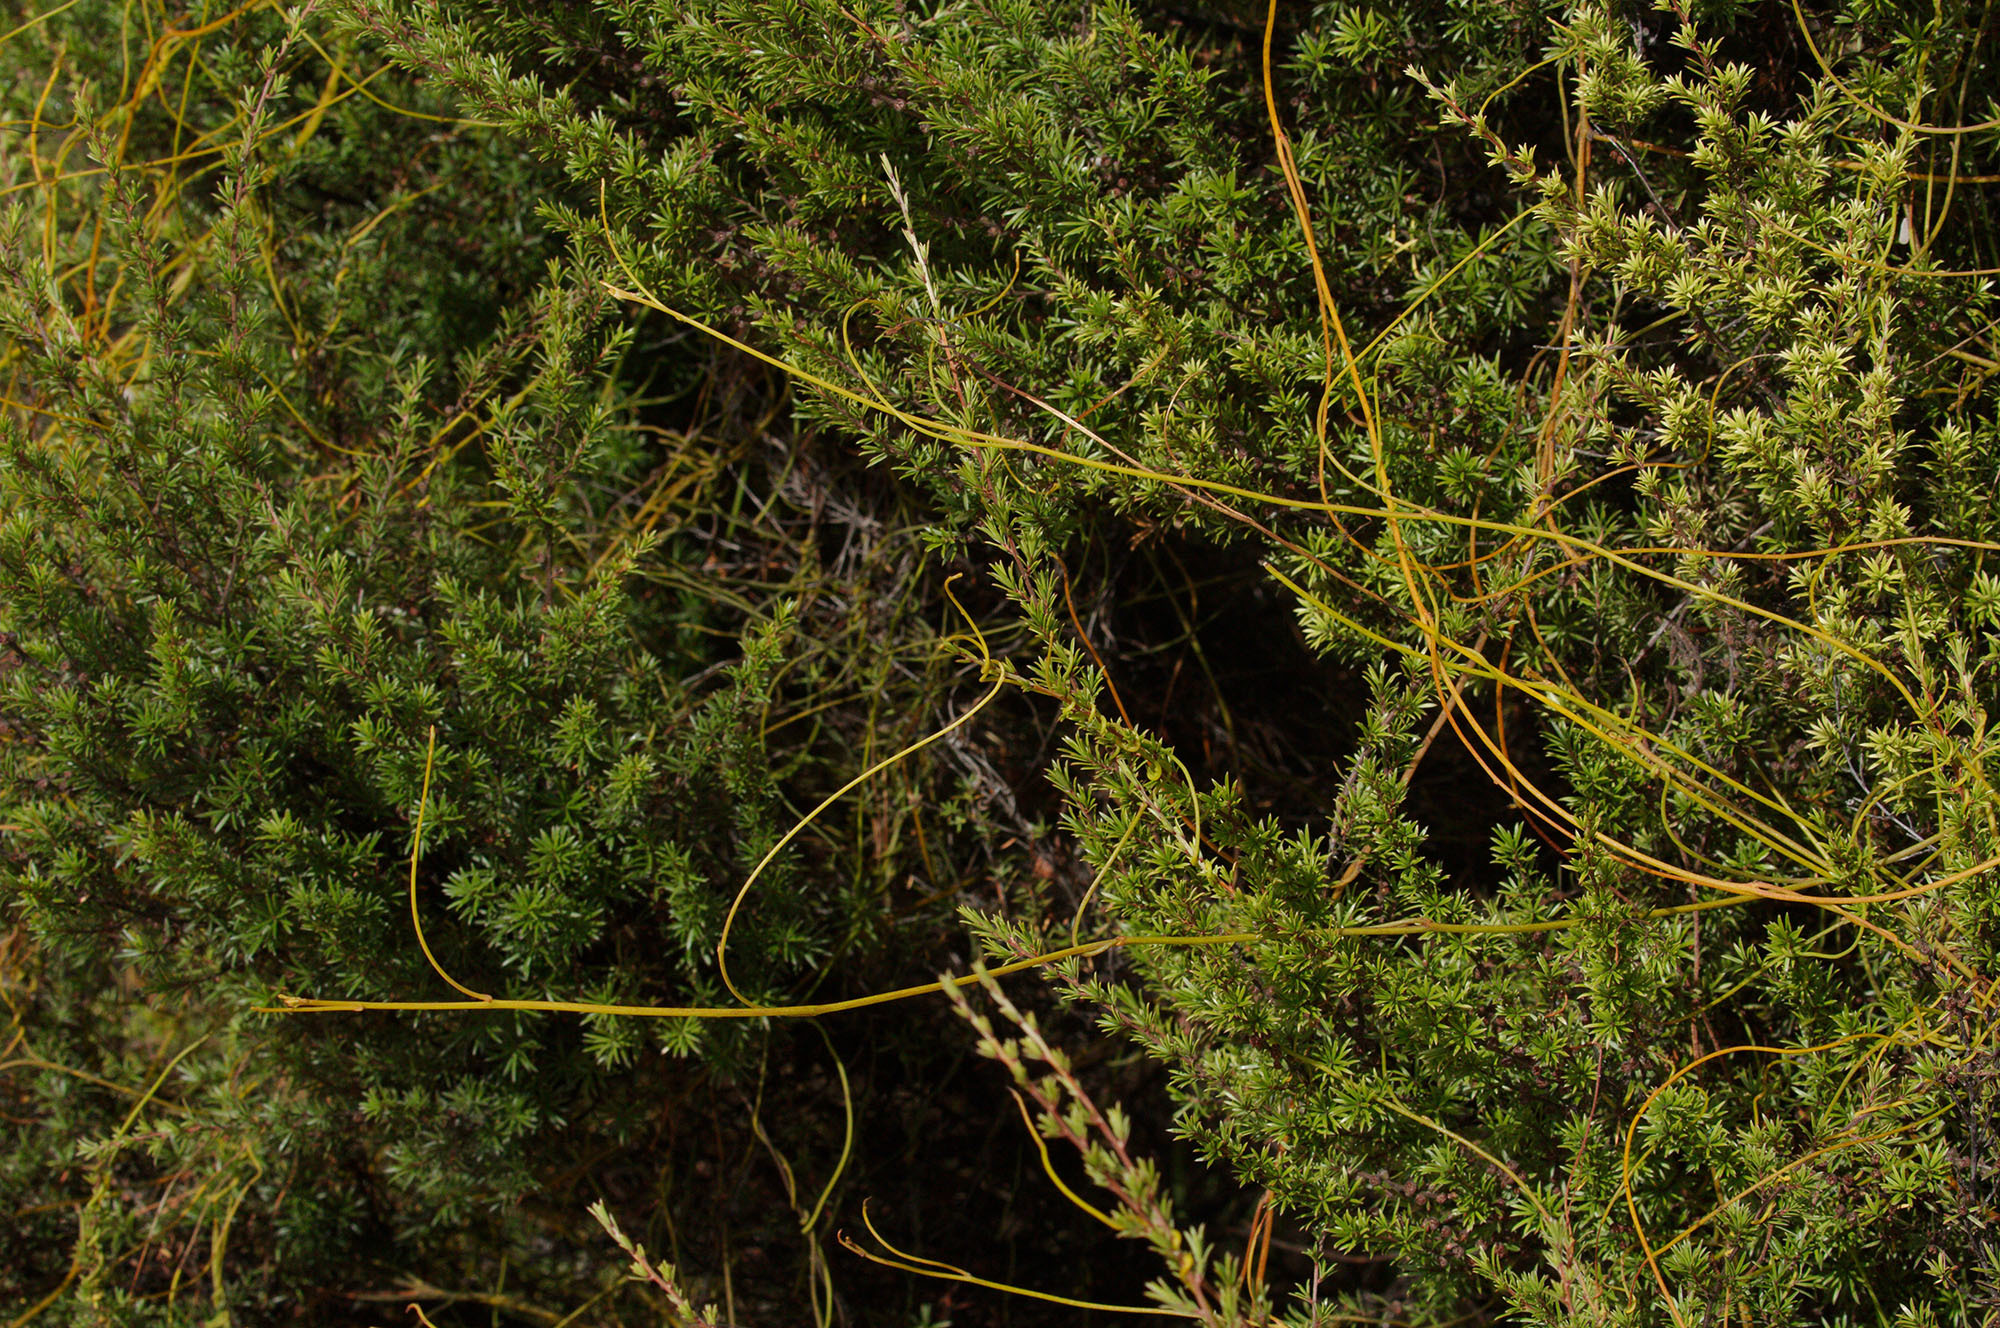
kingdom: Plantae
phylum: Tracheophyta
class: Magnoliopsida
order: Laurales
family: Lauraceae
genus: Cassytha
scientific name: Cassytha paniculata
